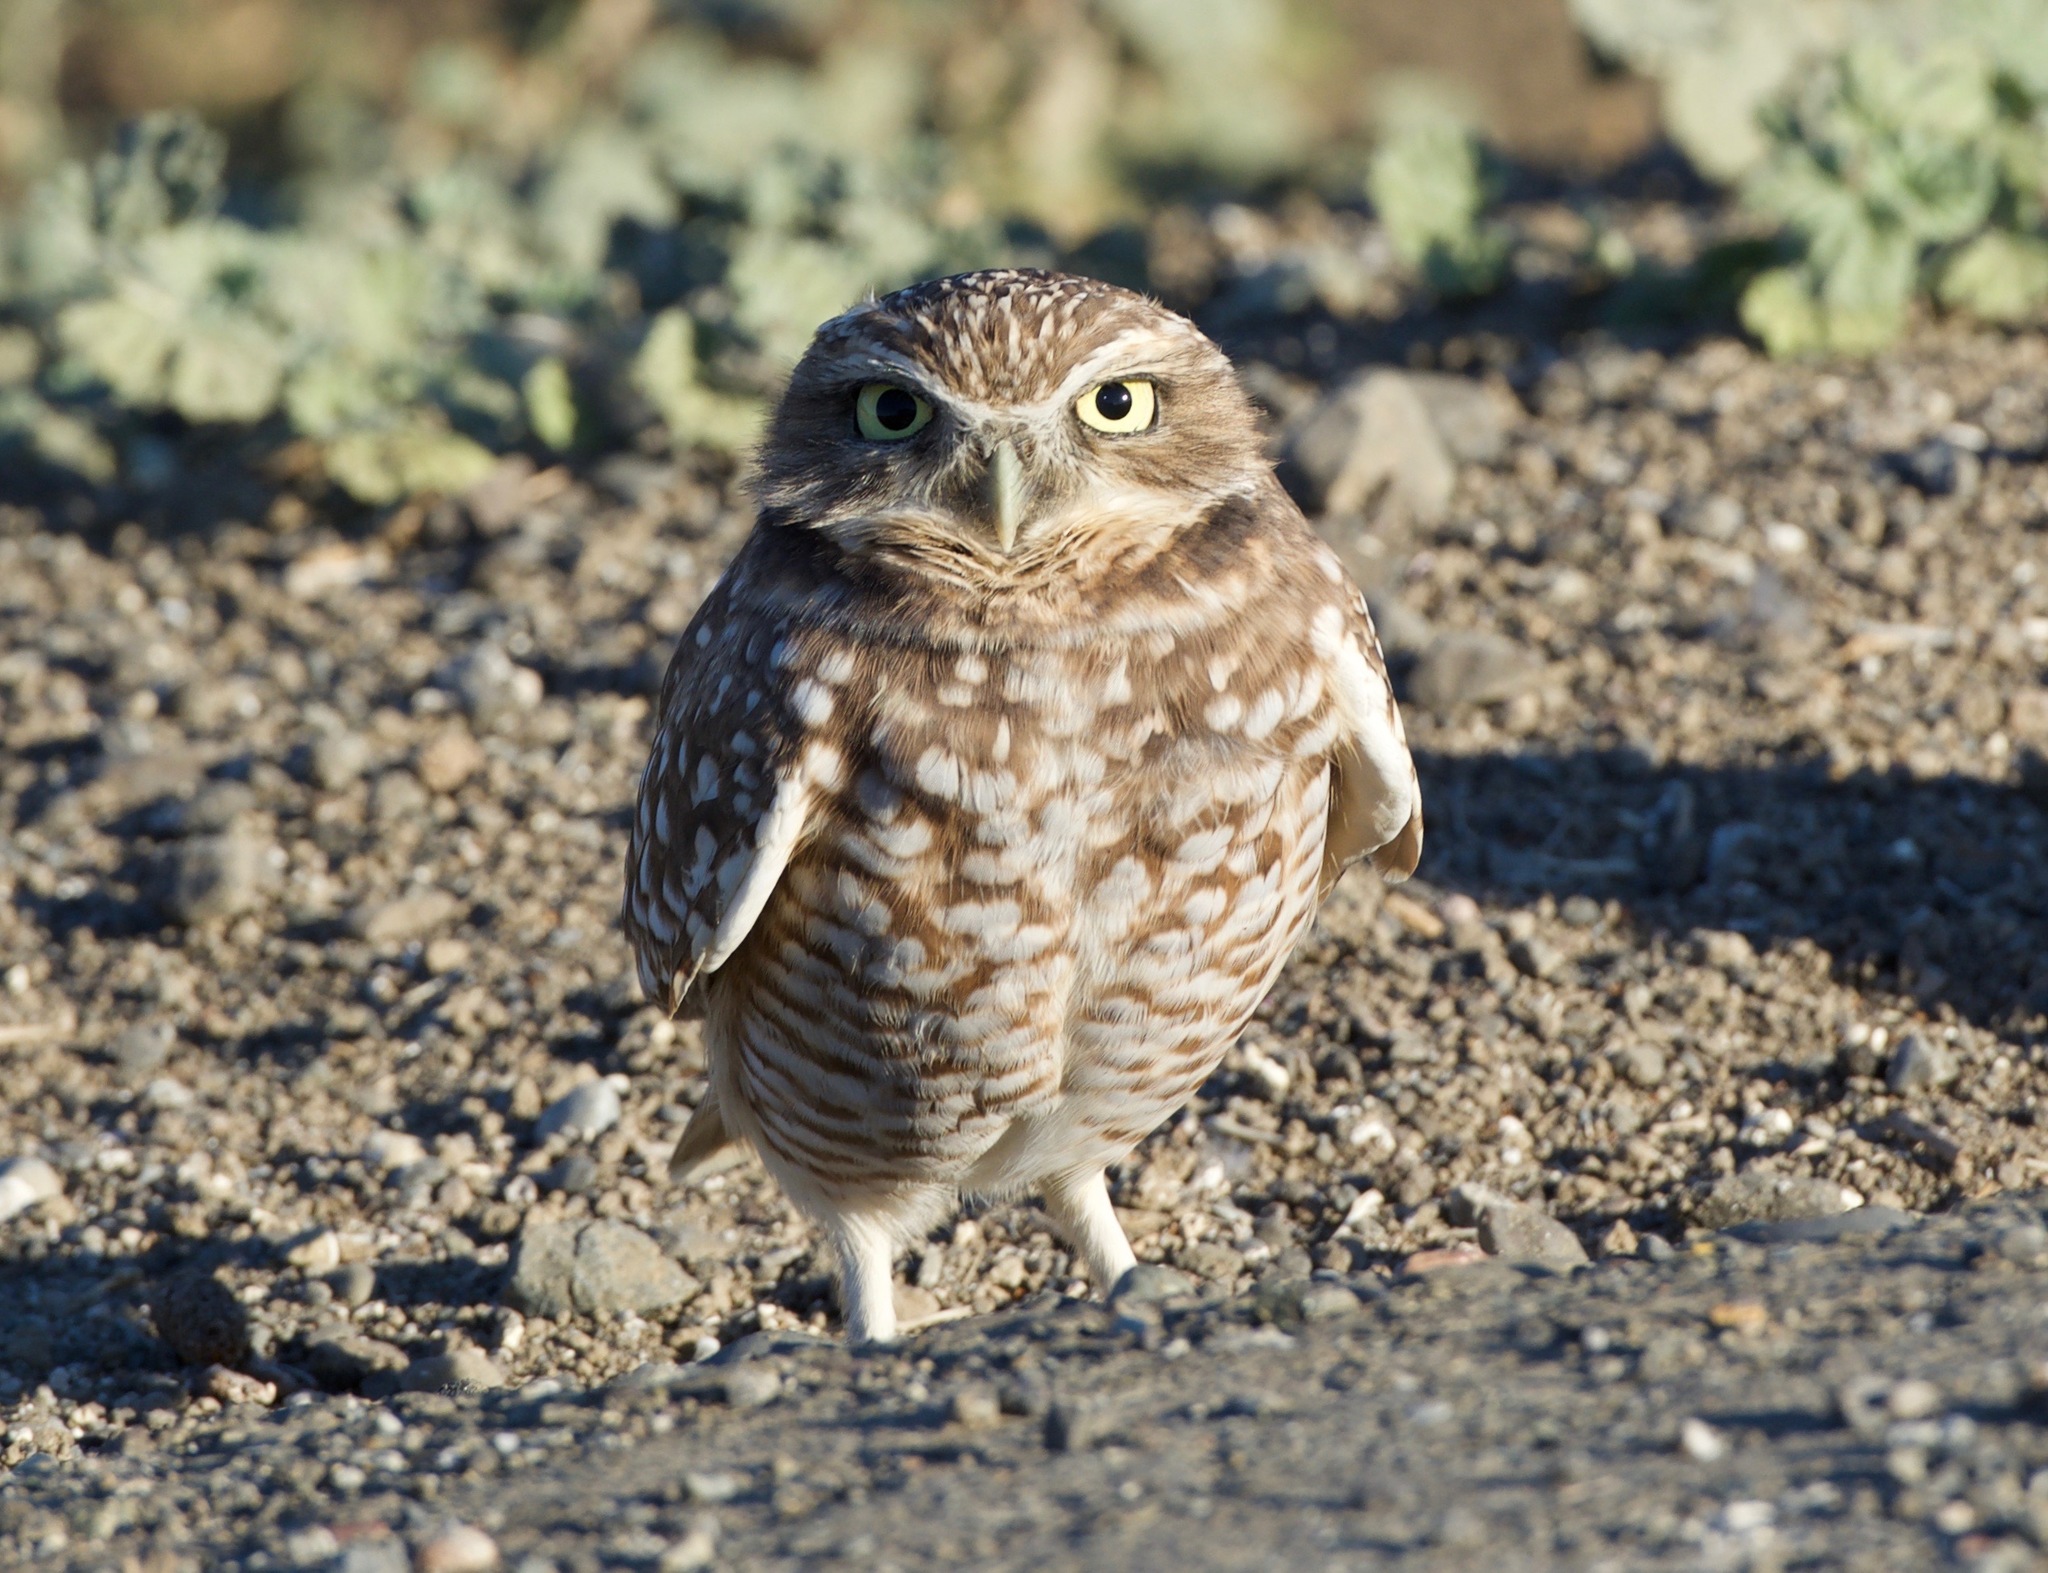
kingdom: Animalia
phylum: Chordata
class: Aves
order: Strigiformes
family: Strigidae
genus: Athene
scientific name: Athene cunicularia
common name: Burrowing owl
